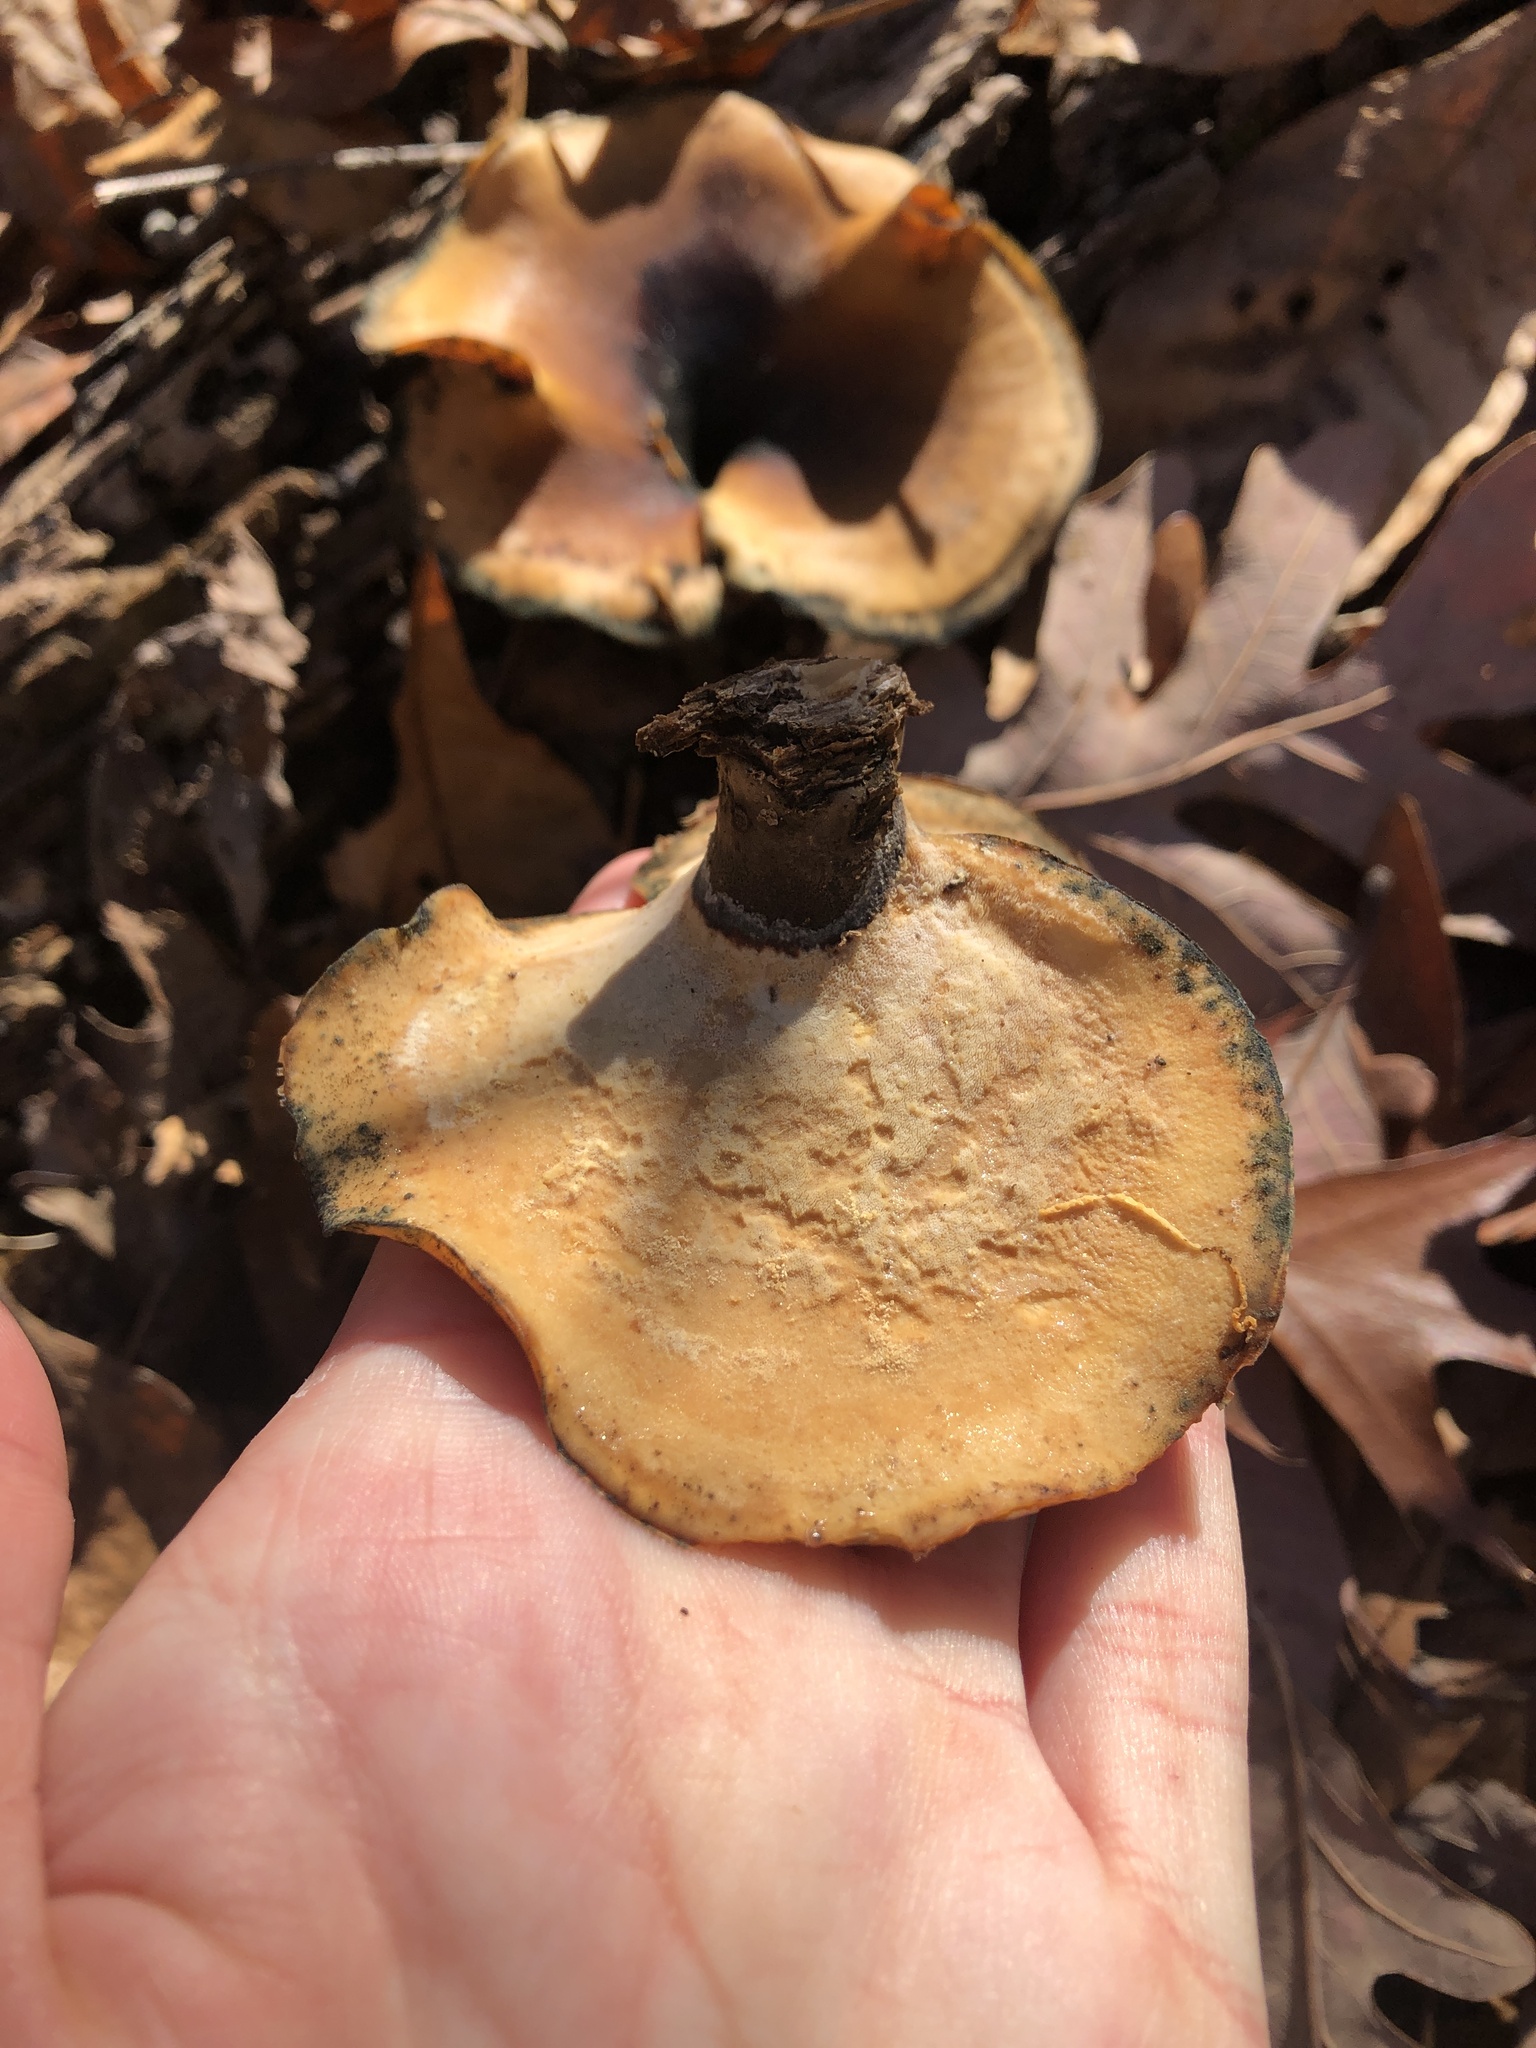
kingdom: Fungi
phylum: Basidiomycota
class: Agaricomycetes
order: Polyporales
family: Polyporaceae
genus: Picipes
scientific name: Picipes badius
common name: Bay polypore
